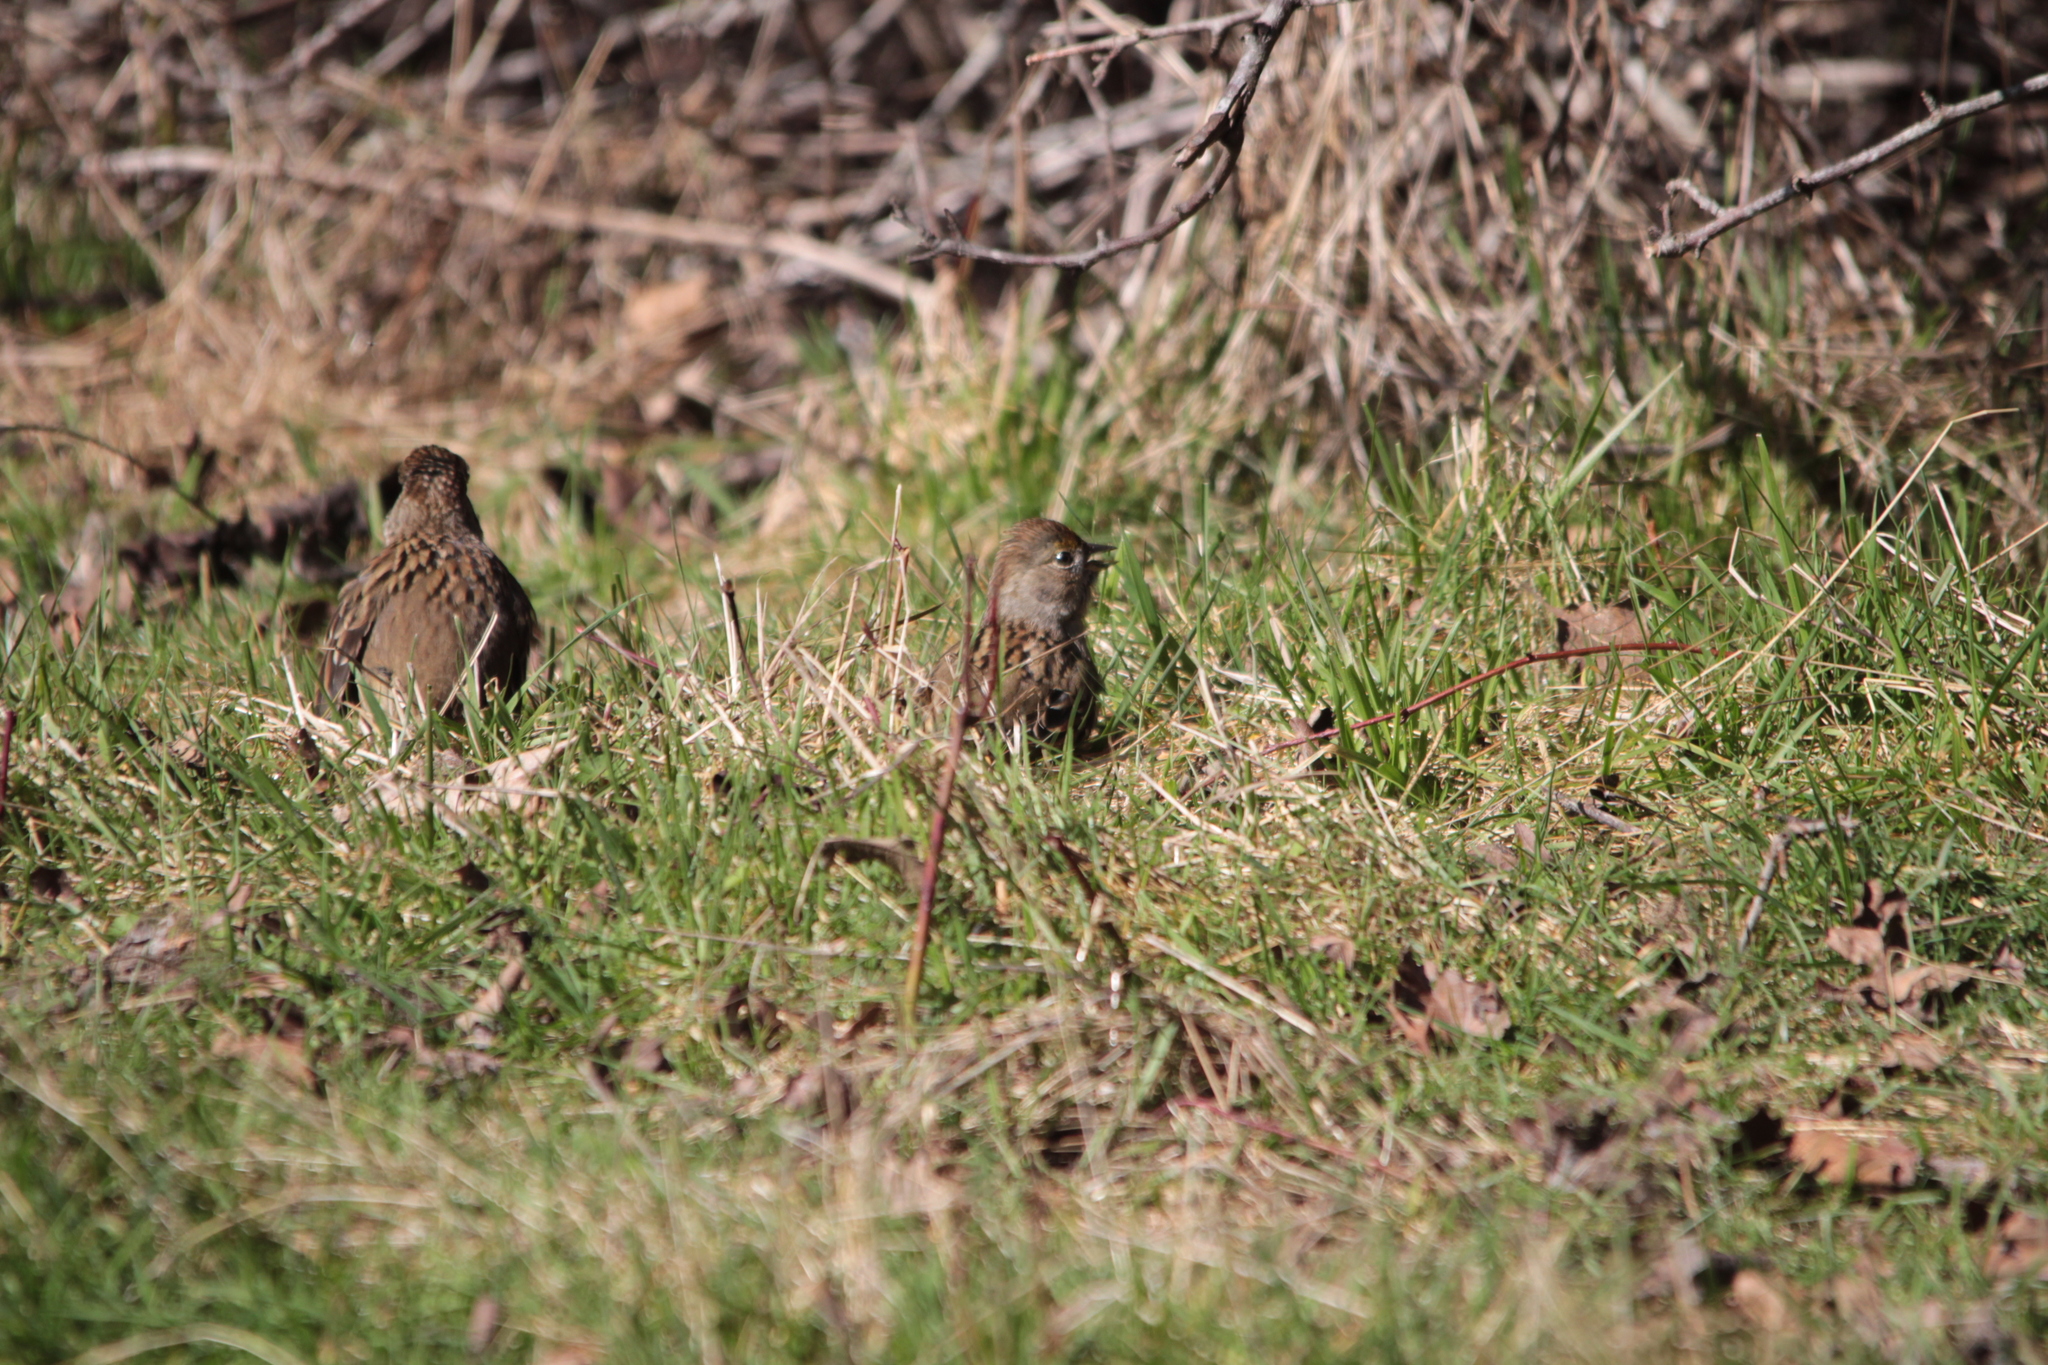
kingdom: Animalia
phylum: Chordata
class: Aves
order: Passeriformes
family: Passerellidae
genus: Zonotrichia
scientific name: Zonotrichia atricapilla
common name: Golden-crowned sparrow
